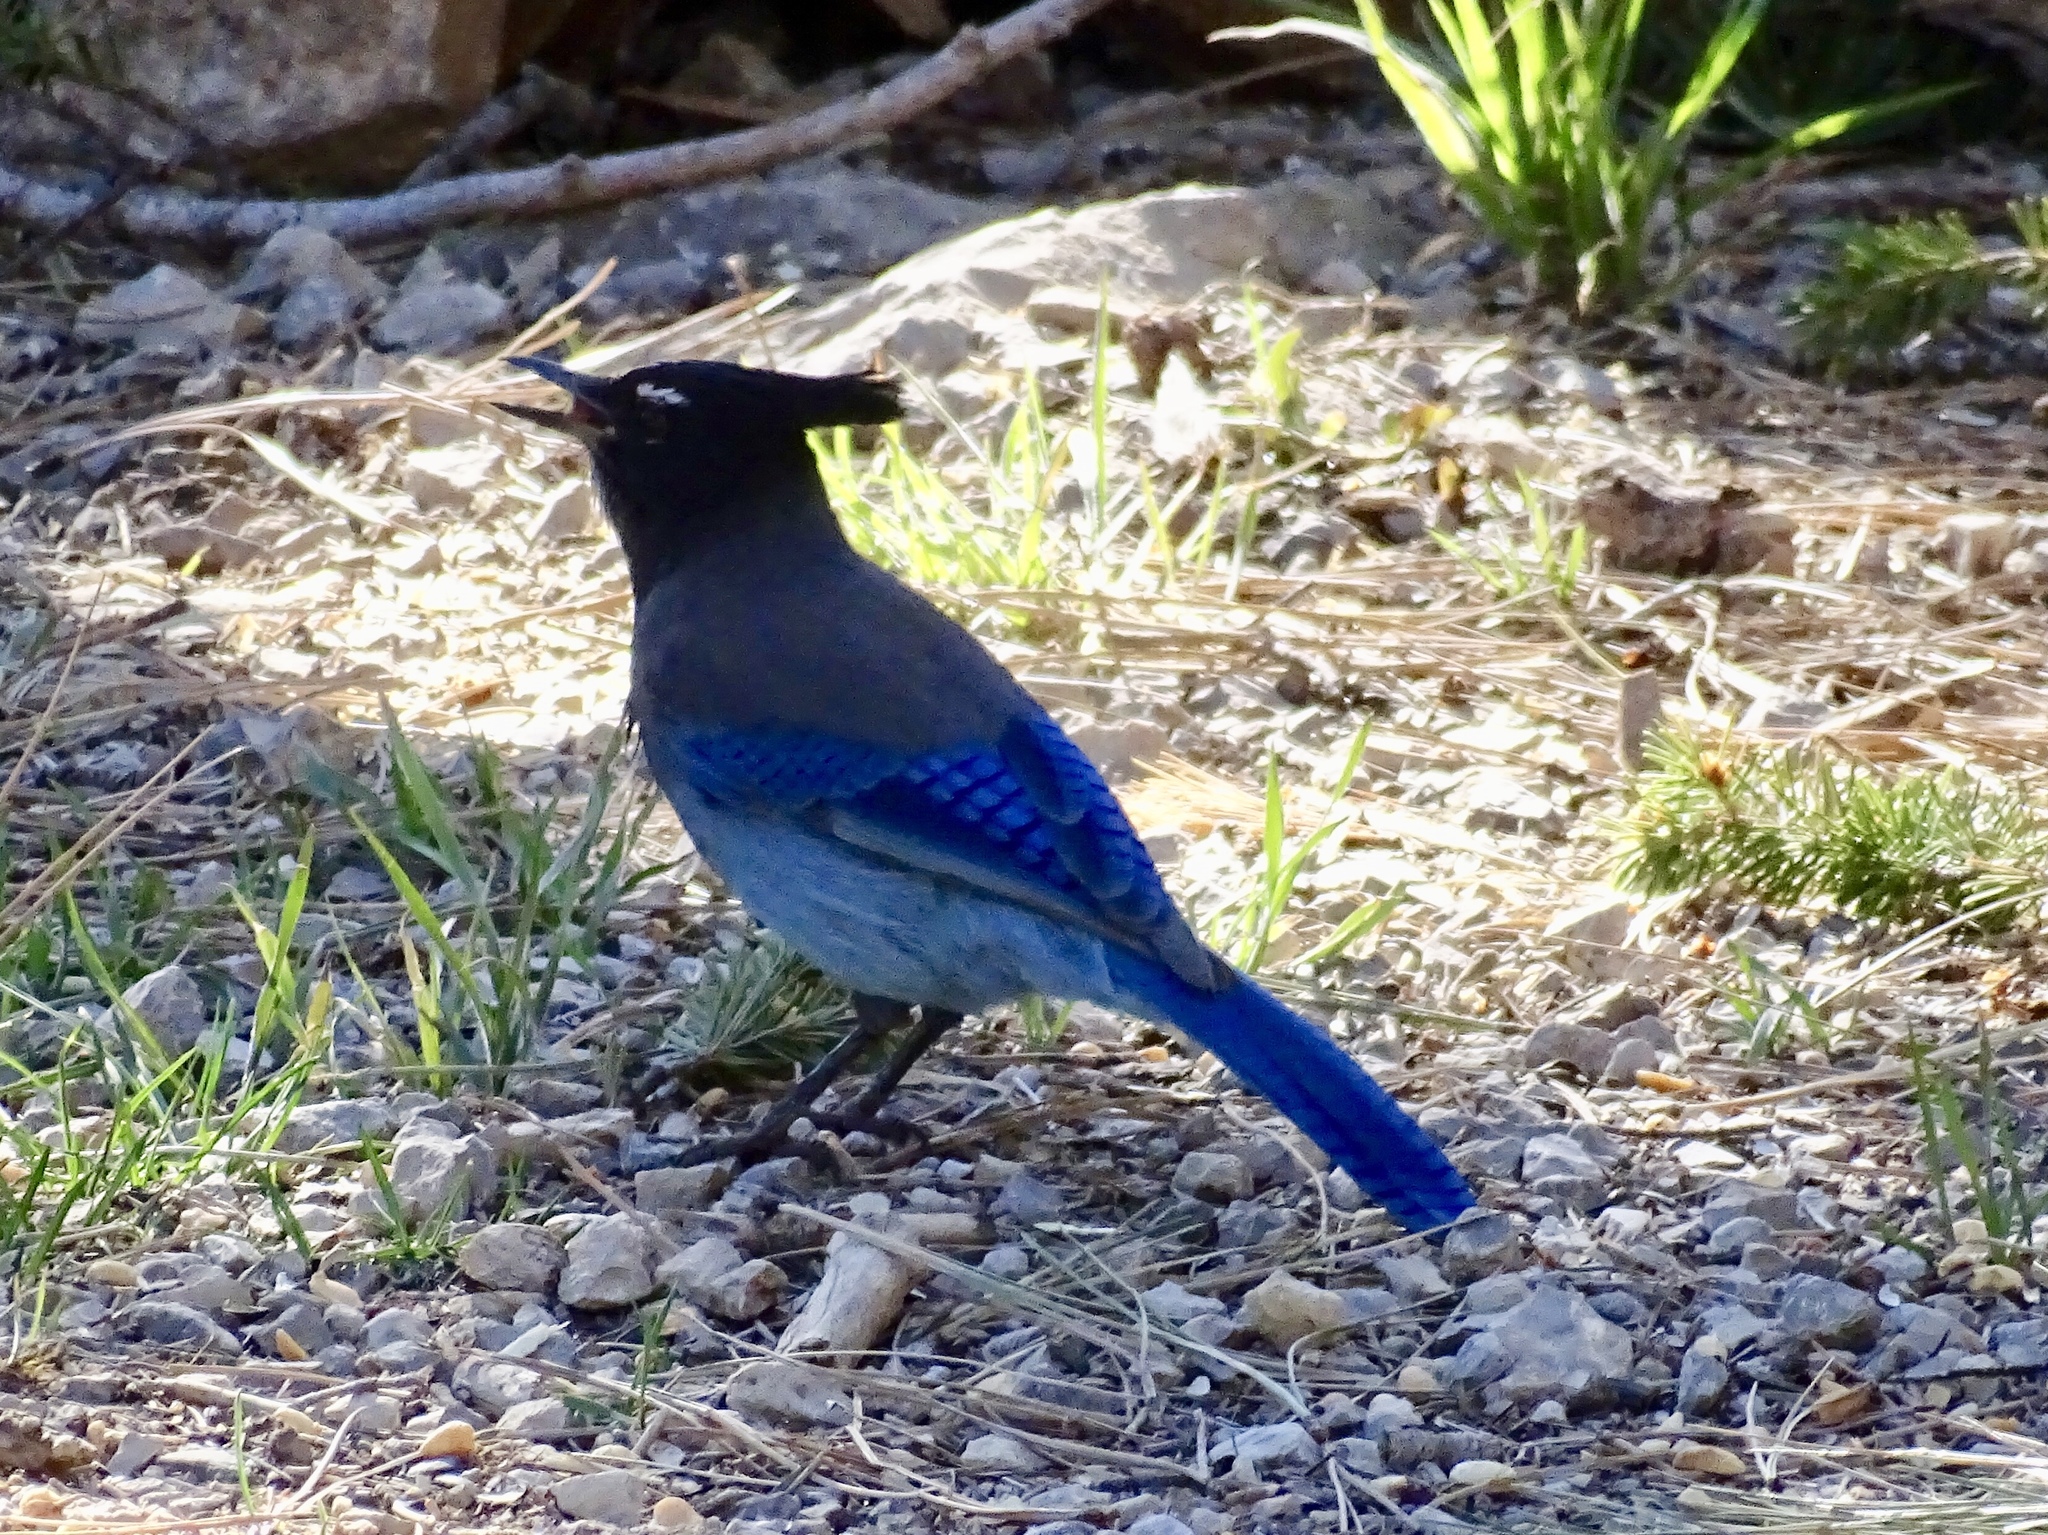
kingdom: Animalia
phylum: Chordata
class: Aves
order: Passeriformes
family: Corvidae
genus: Cyanocitta
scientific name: Cyanocitta stelleri
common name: Steller's jay
